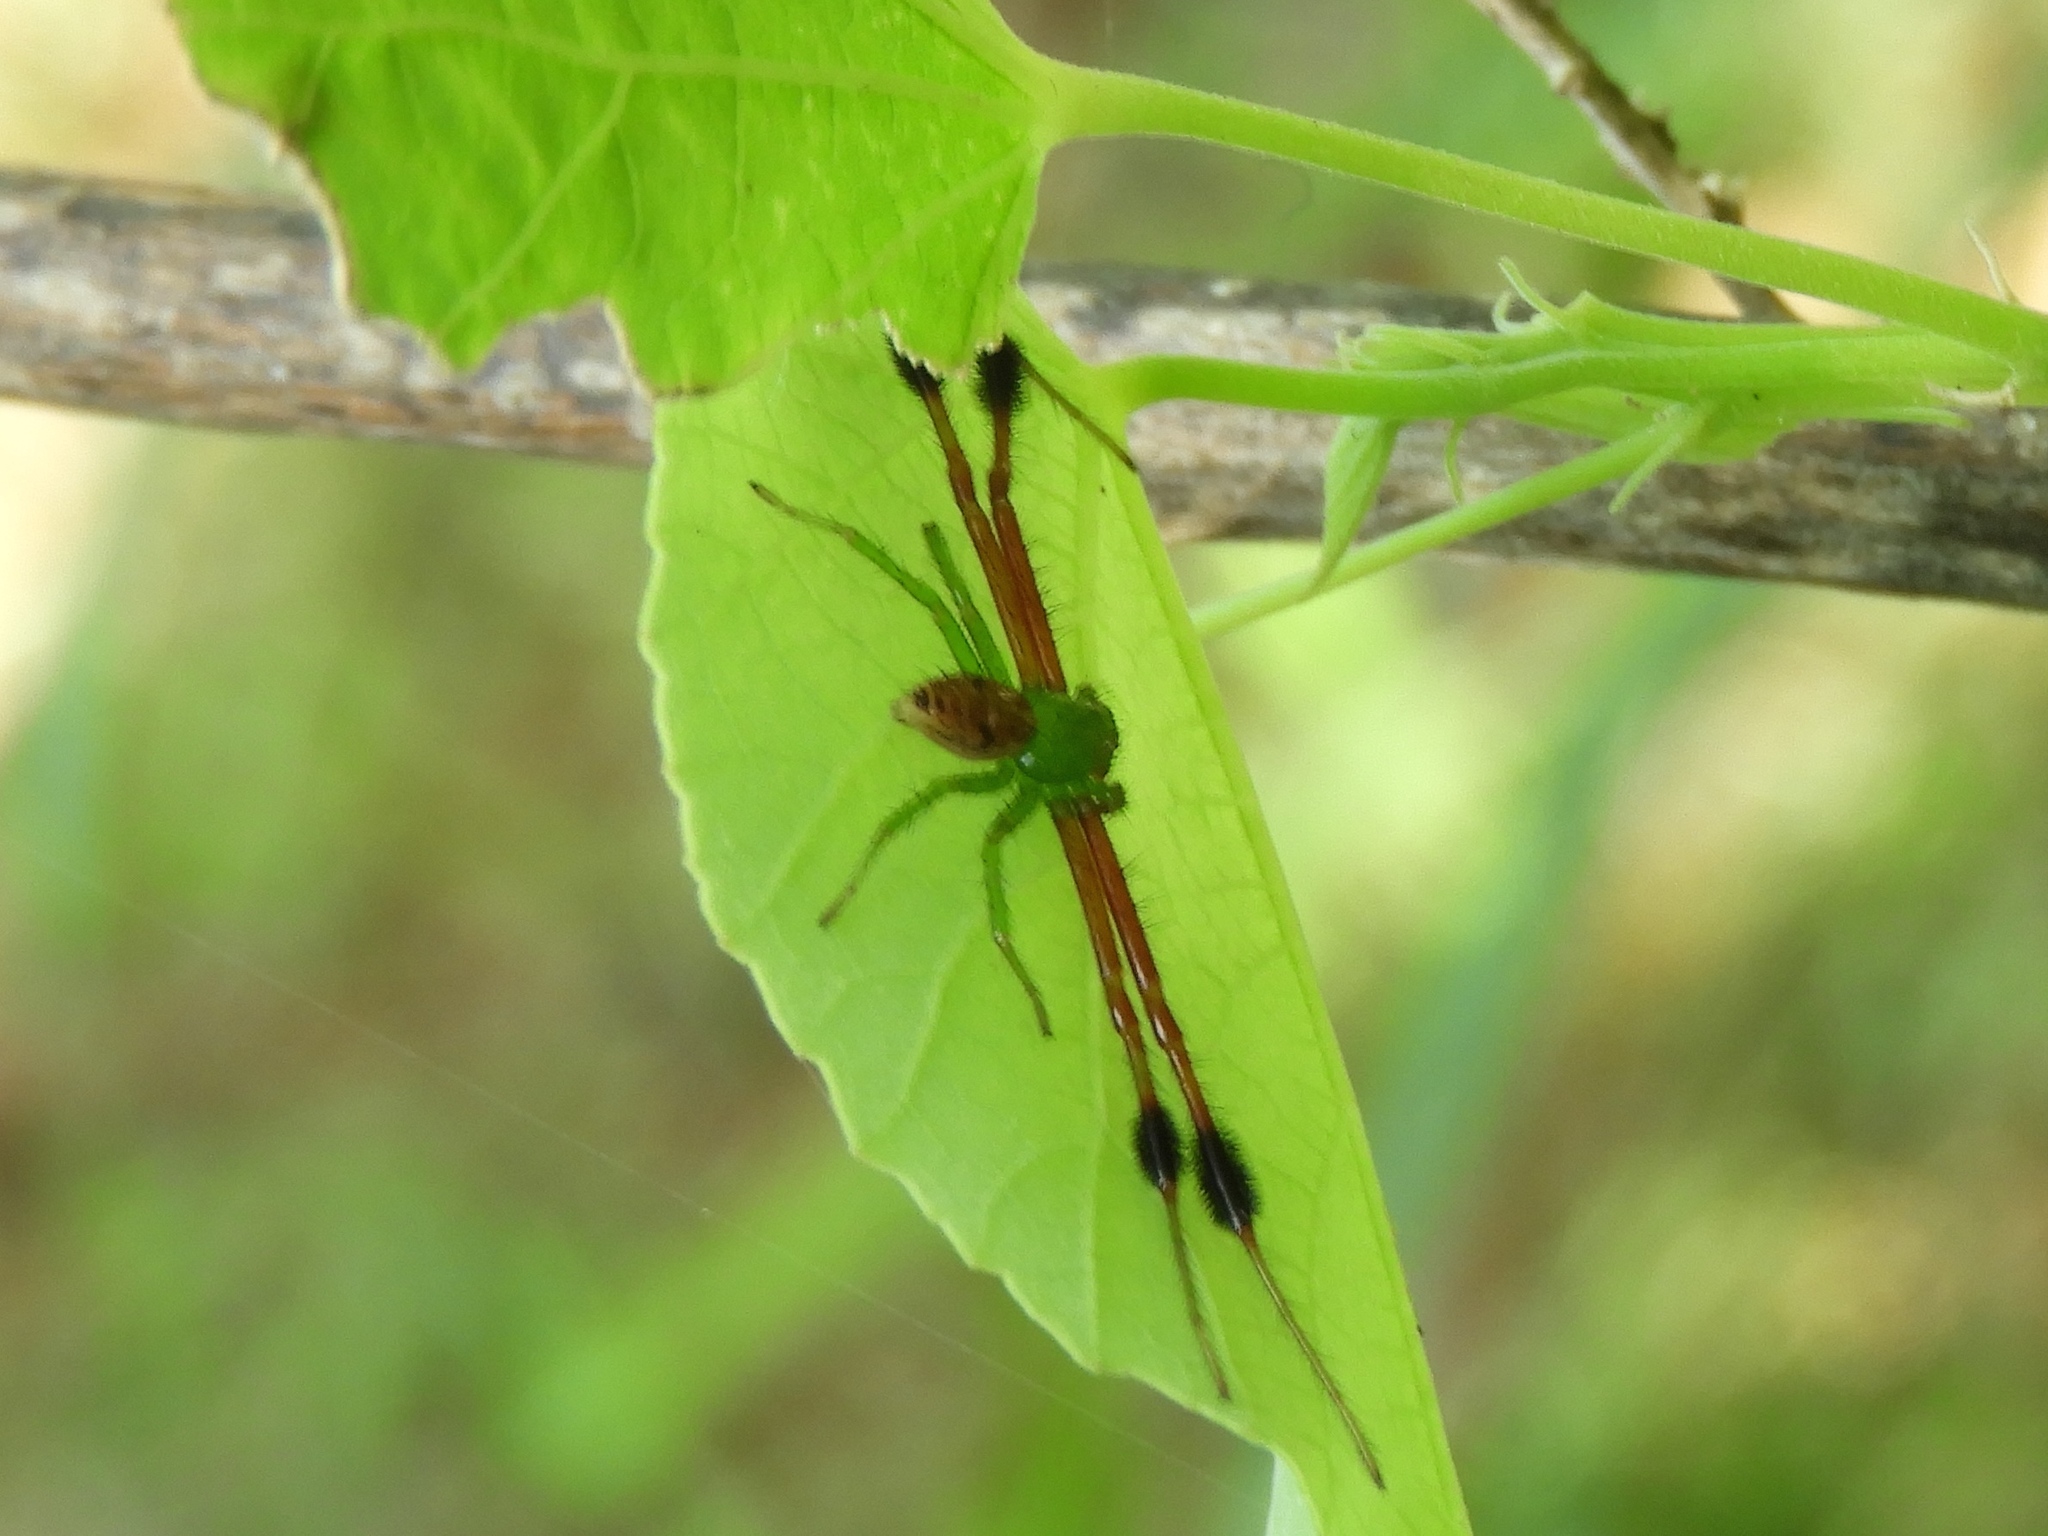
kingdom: Animalia
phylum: Arthropoda
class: Arachnida
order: Araneae
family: Thomisidae
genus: Parasynema
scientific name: Parasynema cirripes
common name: Crab spiders
